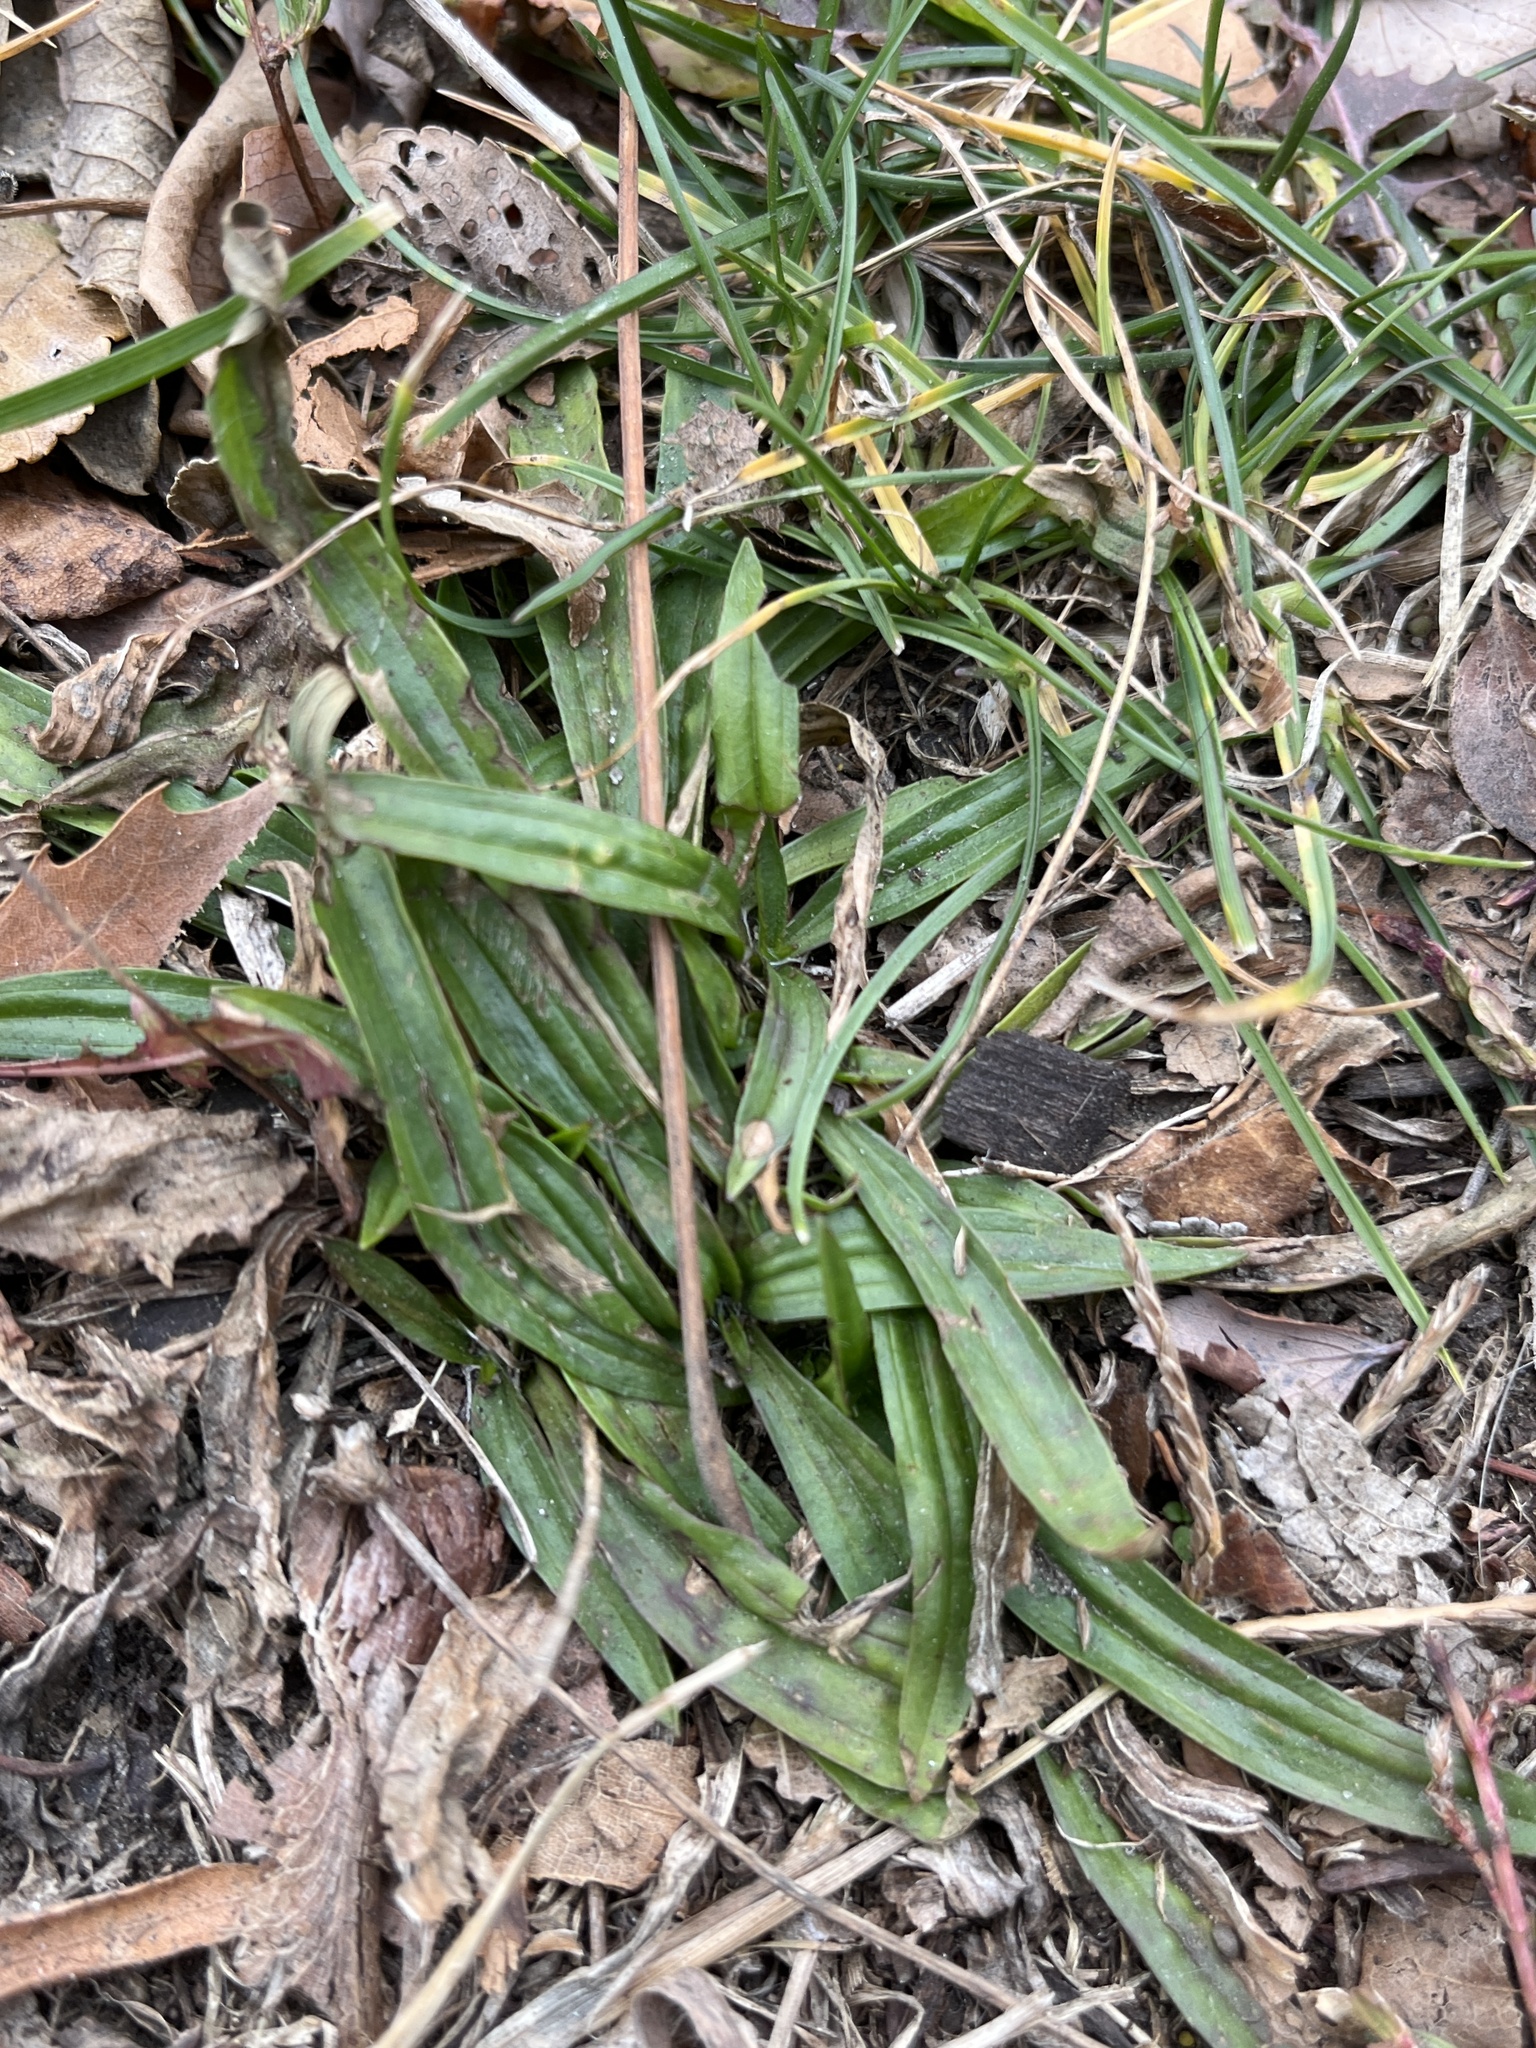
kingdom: Plantae
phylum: Tracheophyta
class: Magnoliopsida
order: Lamiales
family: Plantaginaceae
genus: Plantago
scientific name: Plantago lanceolata
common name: Ribwort plantain
